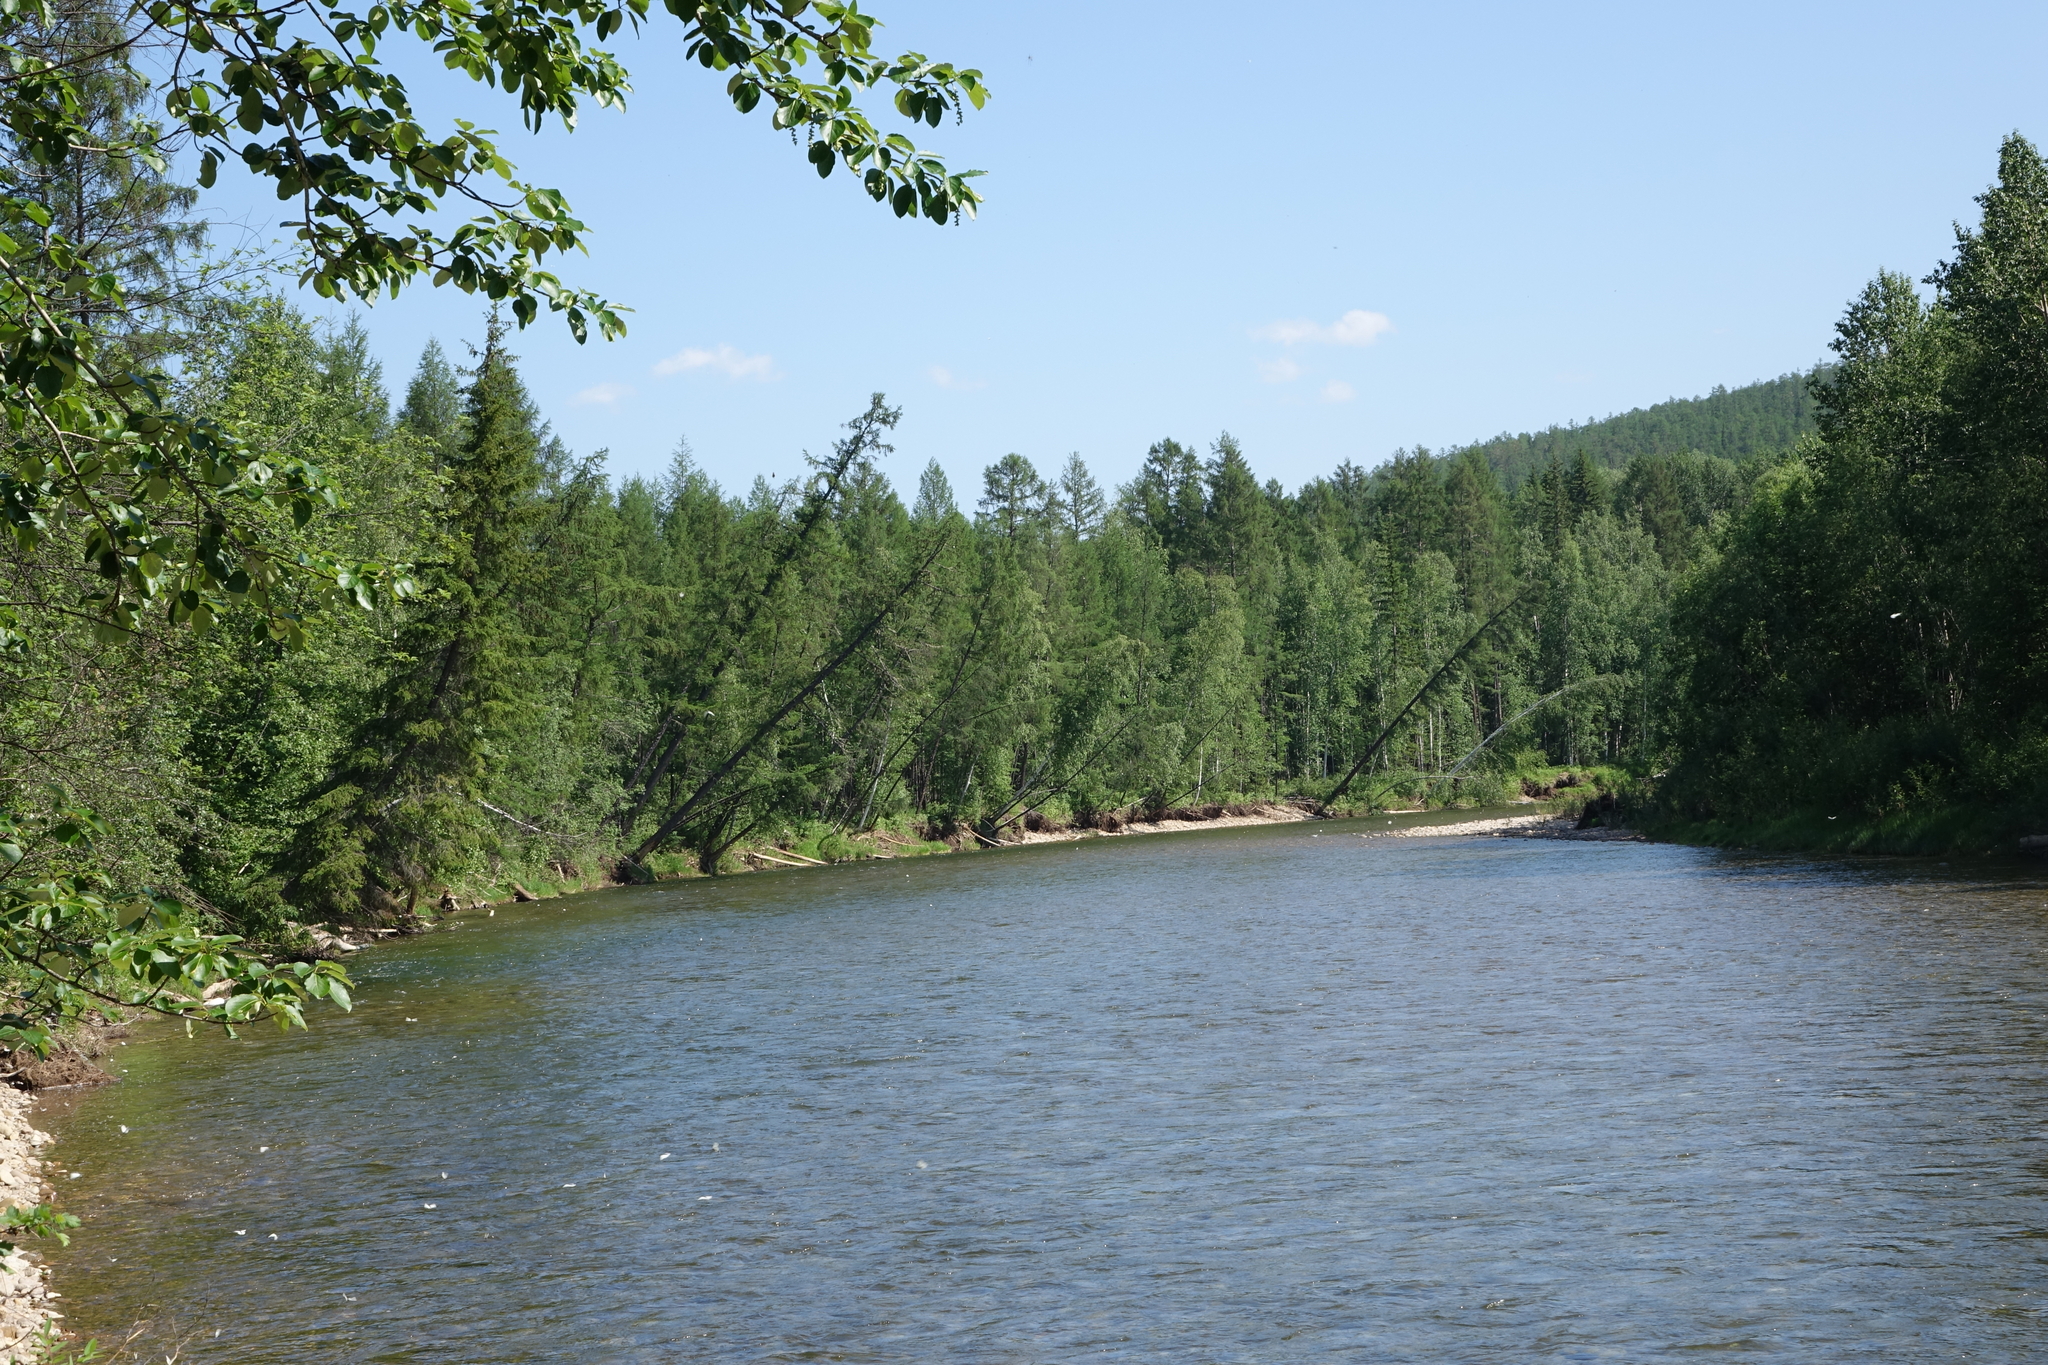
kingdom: Plantae
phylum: Tracheophyta
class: Pinopsida
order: Pinales
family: Pinaceae
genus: Larix
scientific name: Larix gmelinii
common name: Dahurian larch
